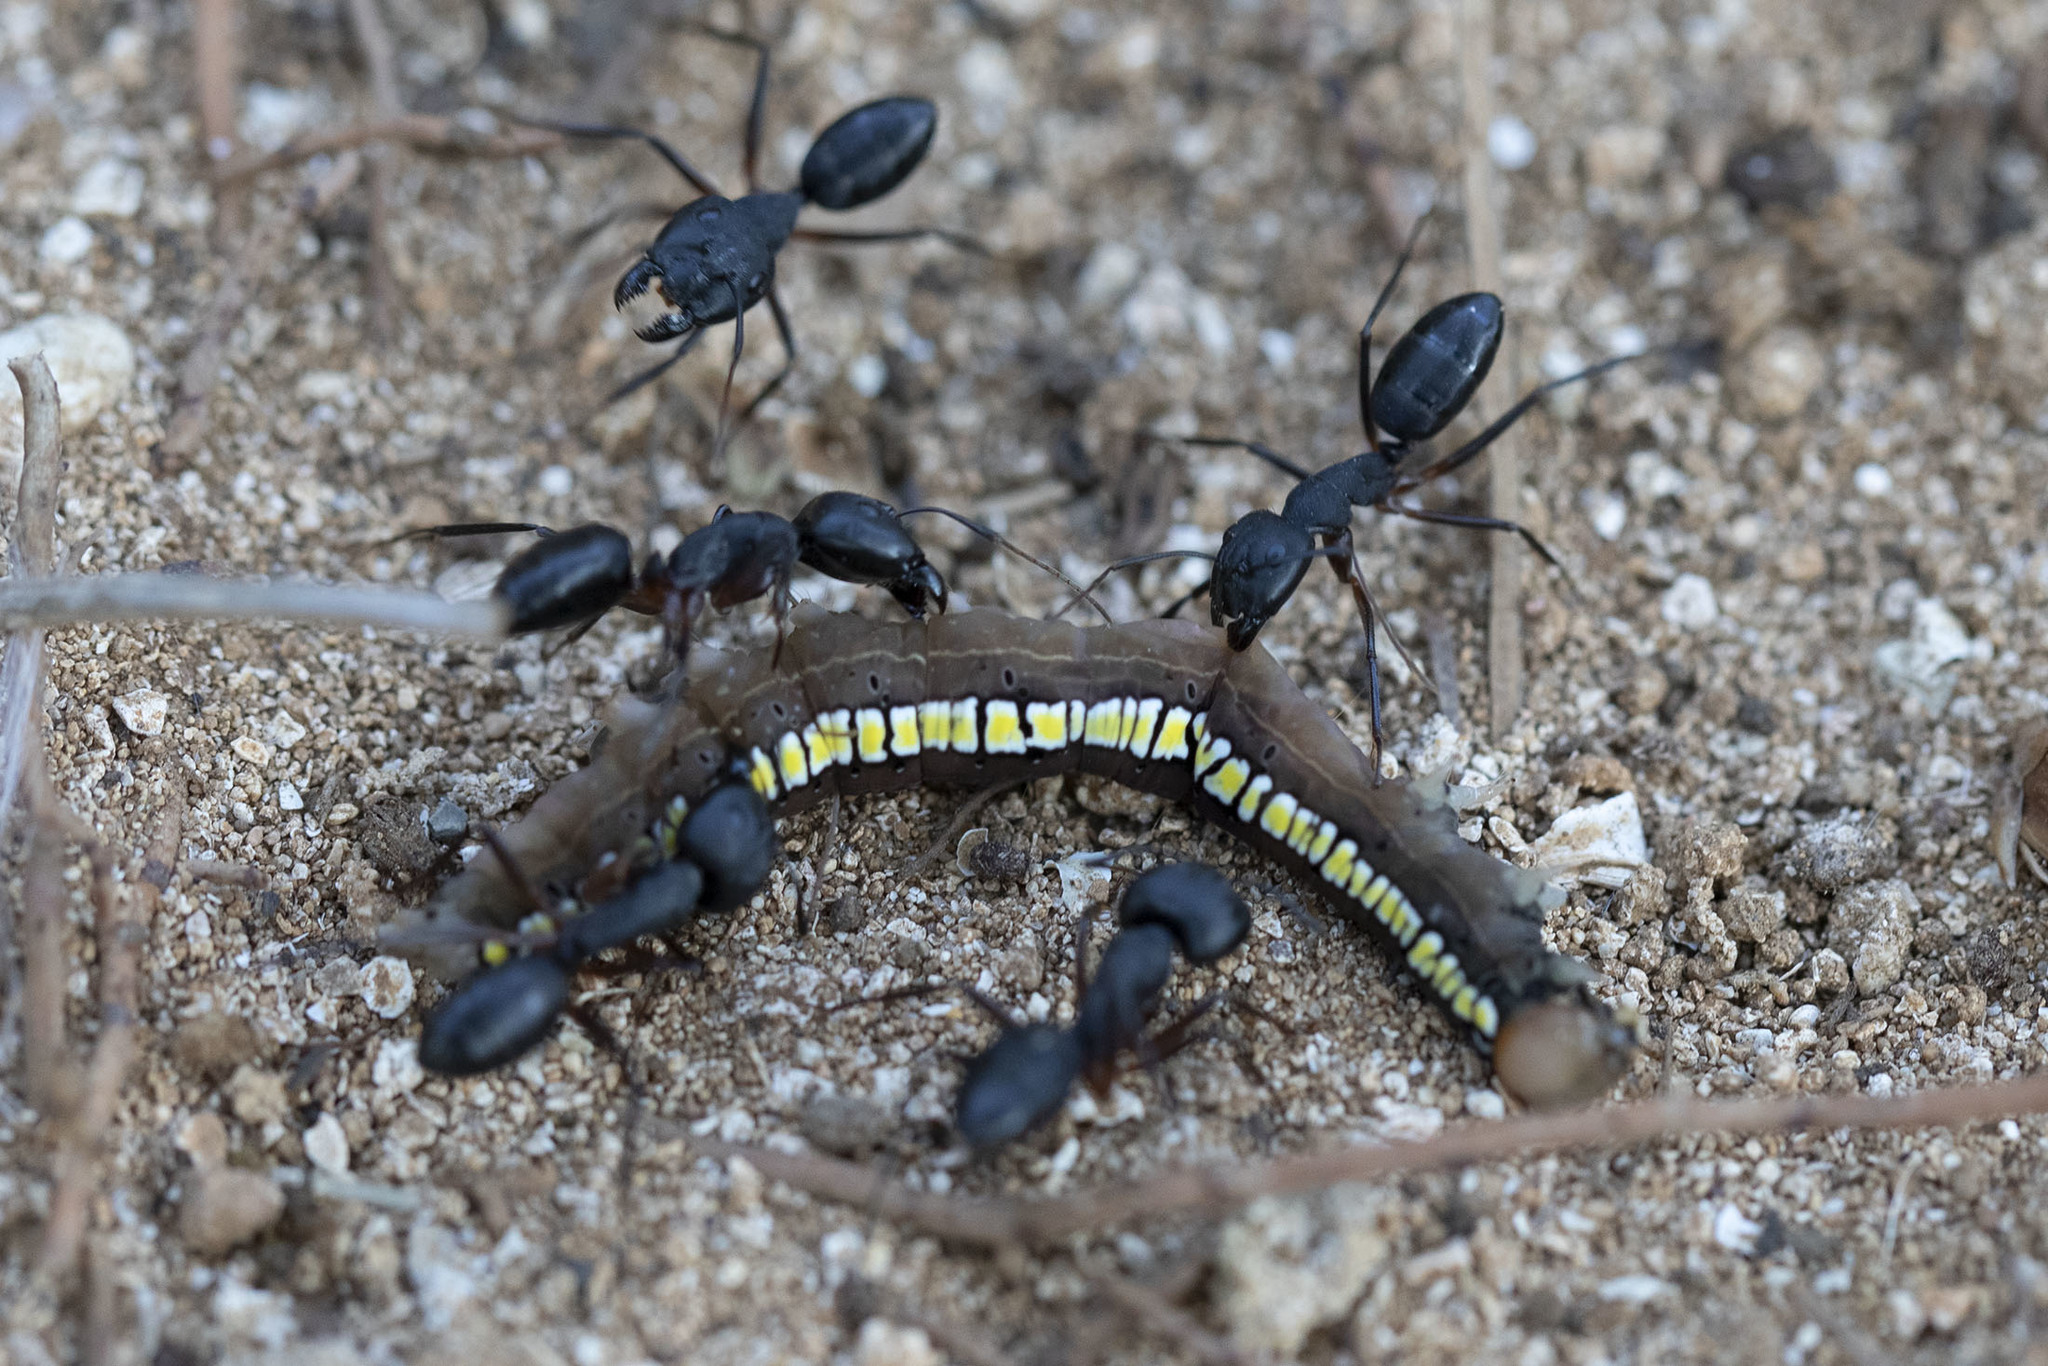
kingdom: Animalia
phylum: Arthropoda
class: Insecta
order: Hymenoptera
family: Formicidae
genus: Camponotus
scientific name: Camponotus compressus
